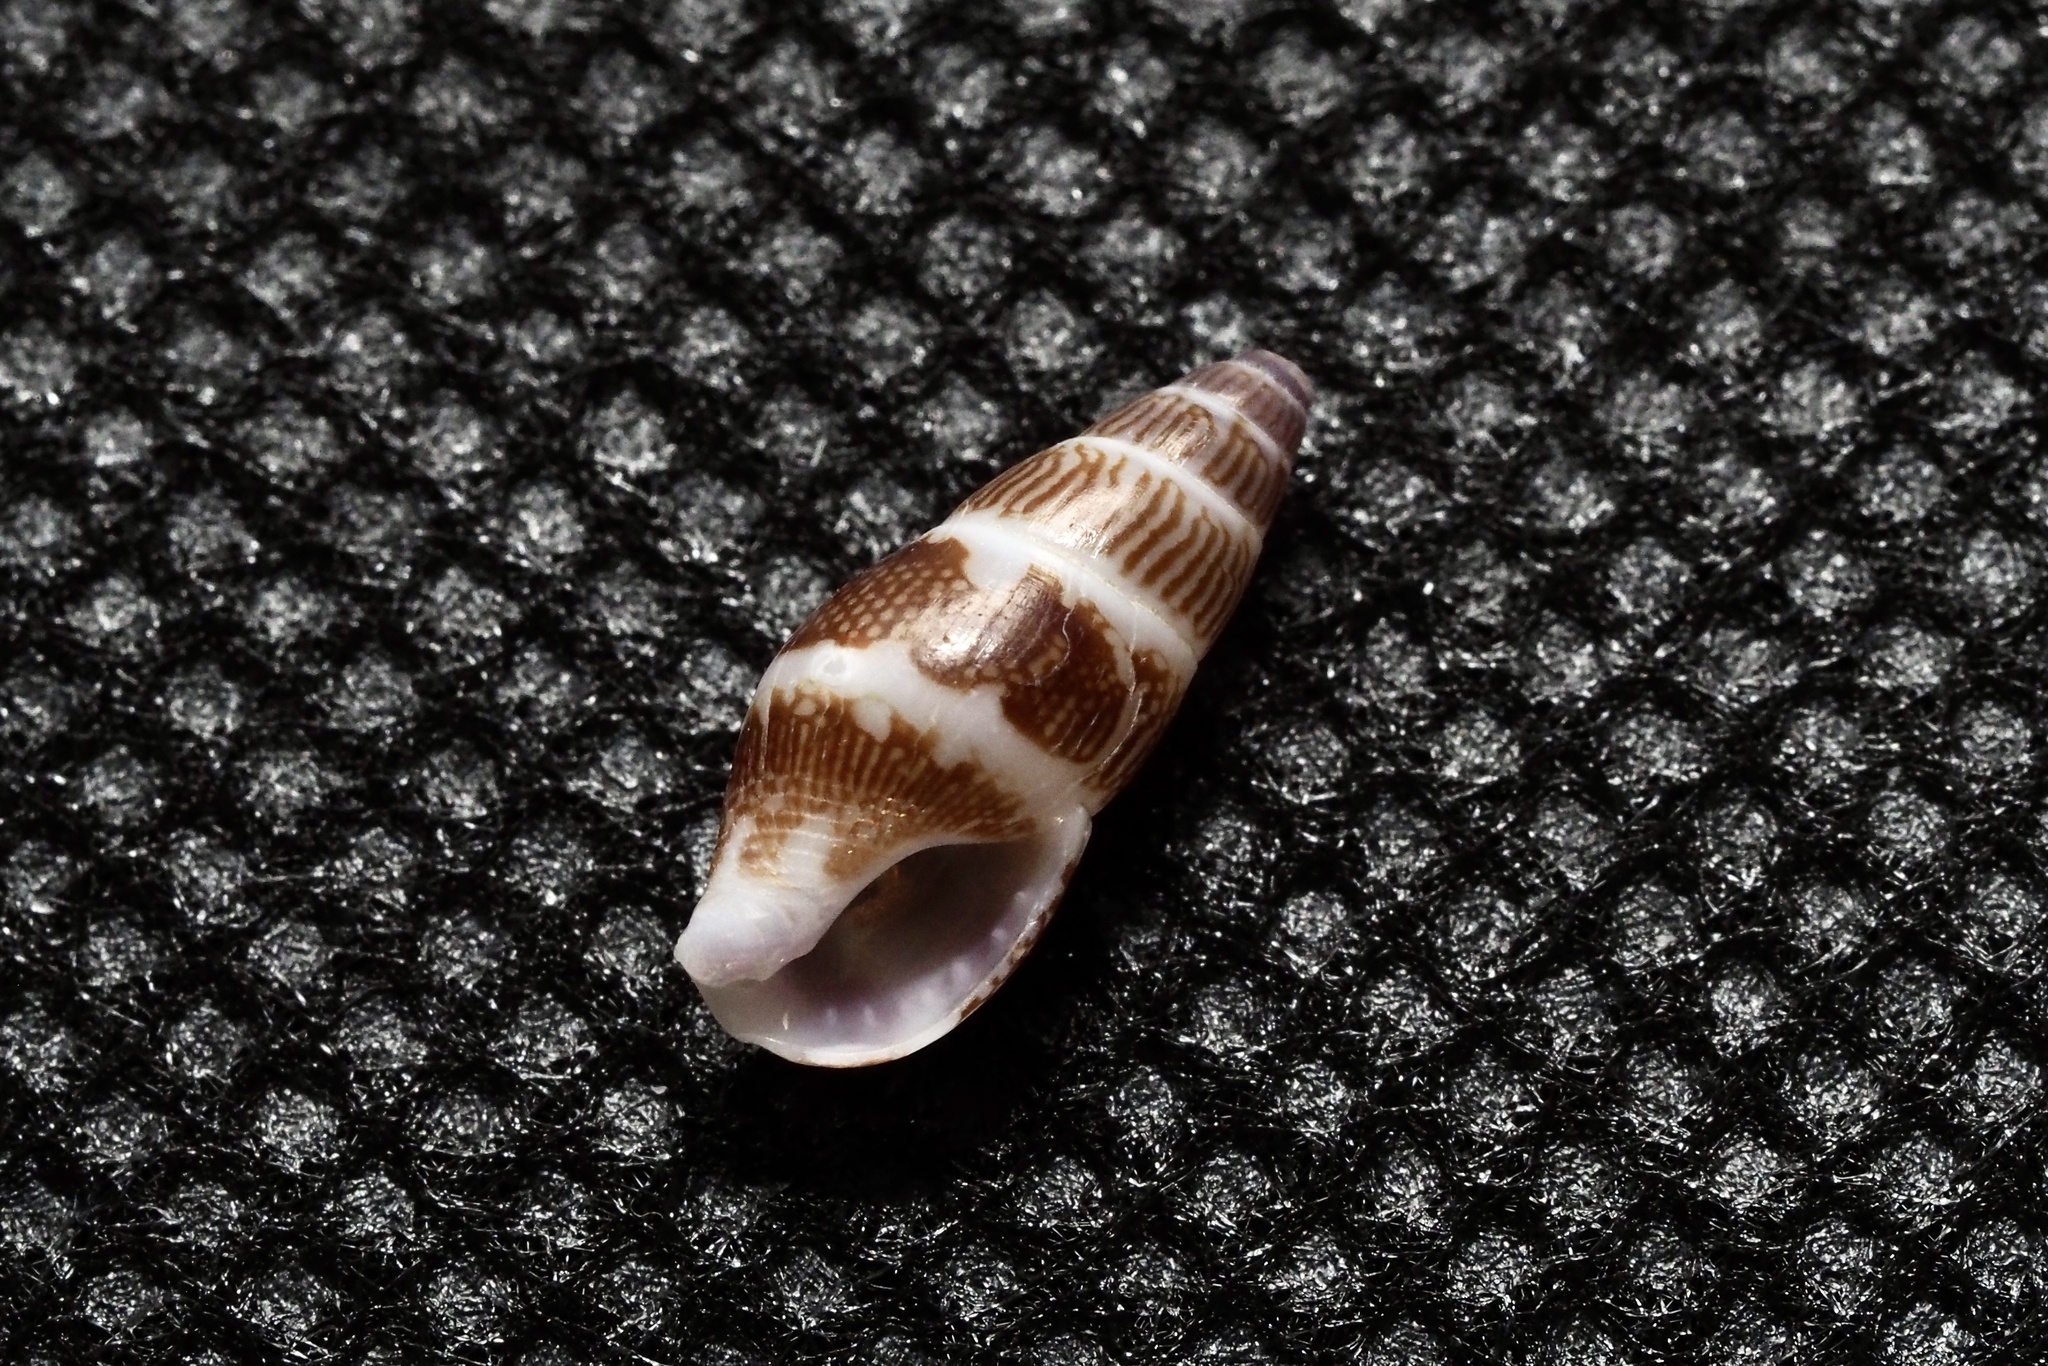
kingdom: Animalia
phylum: Mollusca
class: Gastropoda
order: Neogastropoda
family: Columbellidae
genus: Mitrella
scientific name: Mitrella bicincta
